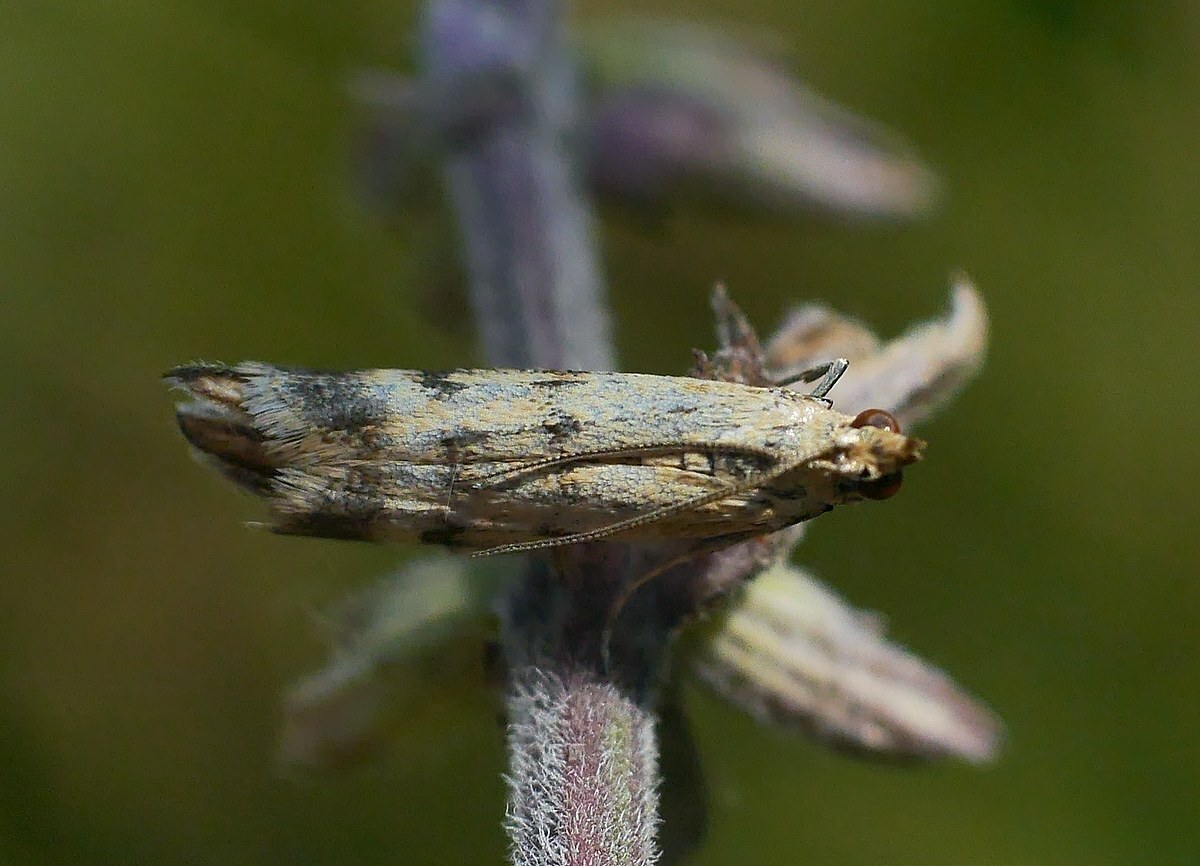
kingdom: Animalia
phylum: Arthropoda
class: Insecta
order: Lepidoptera
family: Pyralidae
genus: Homoeosoma
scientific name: Homoeosoma sinuella
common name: Twin-barred knot-horn
